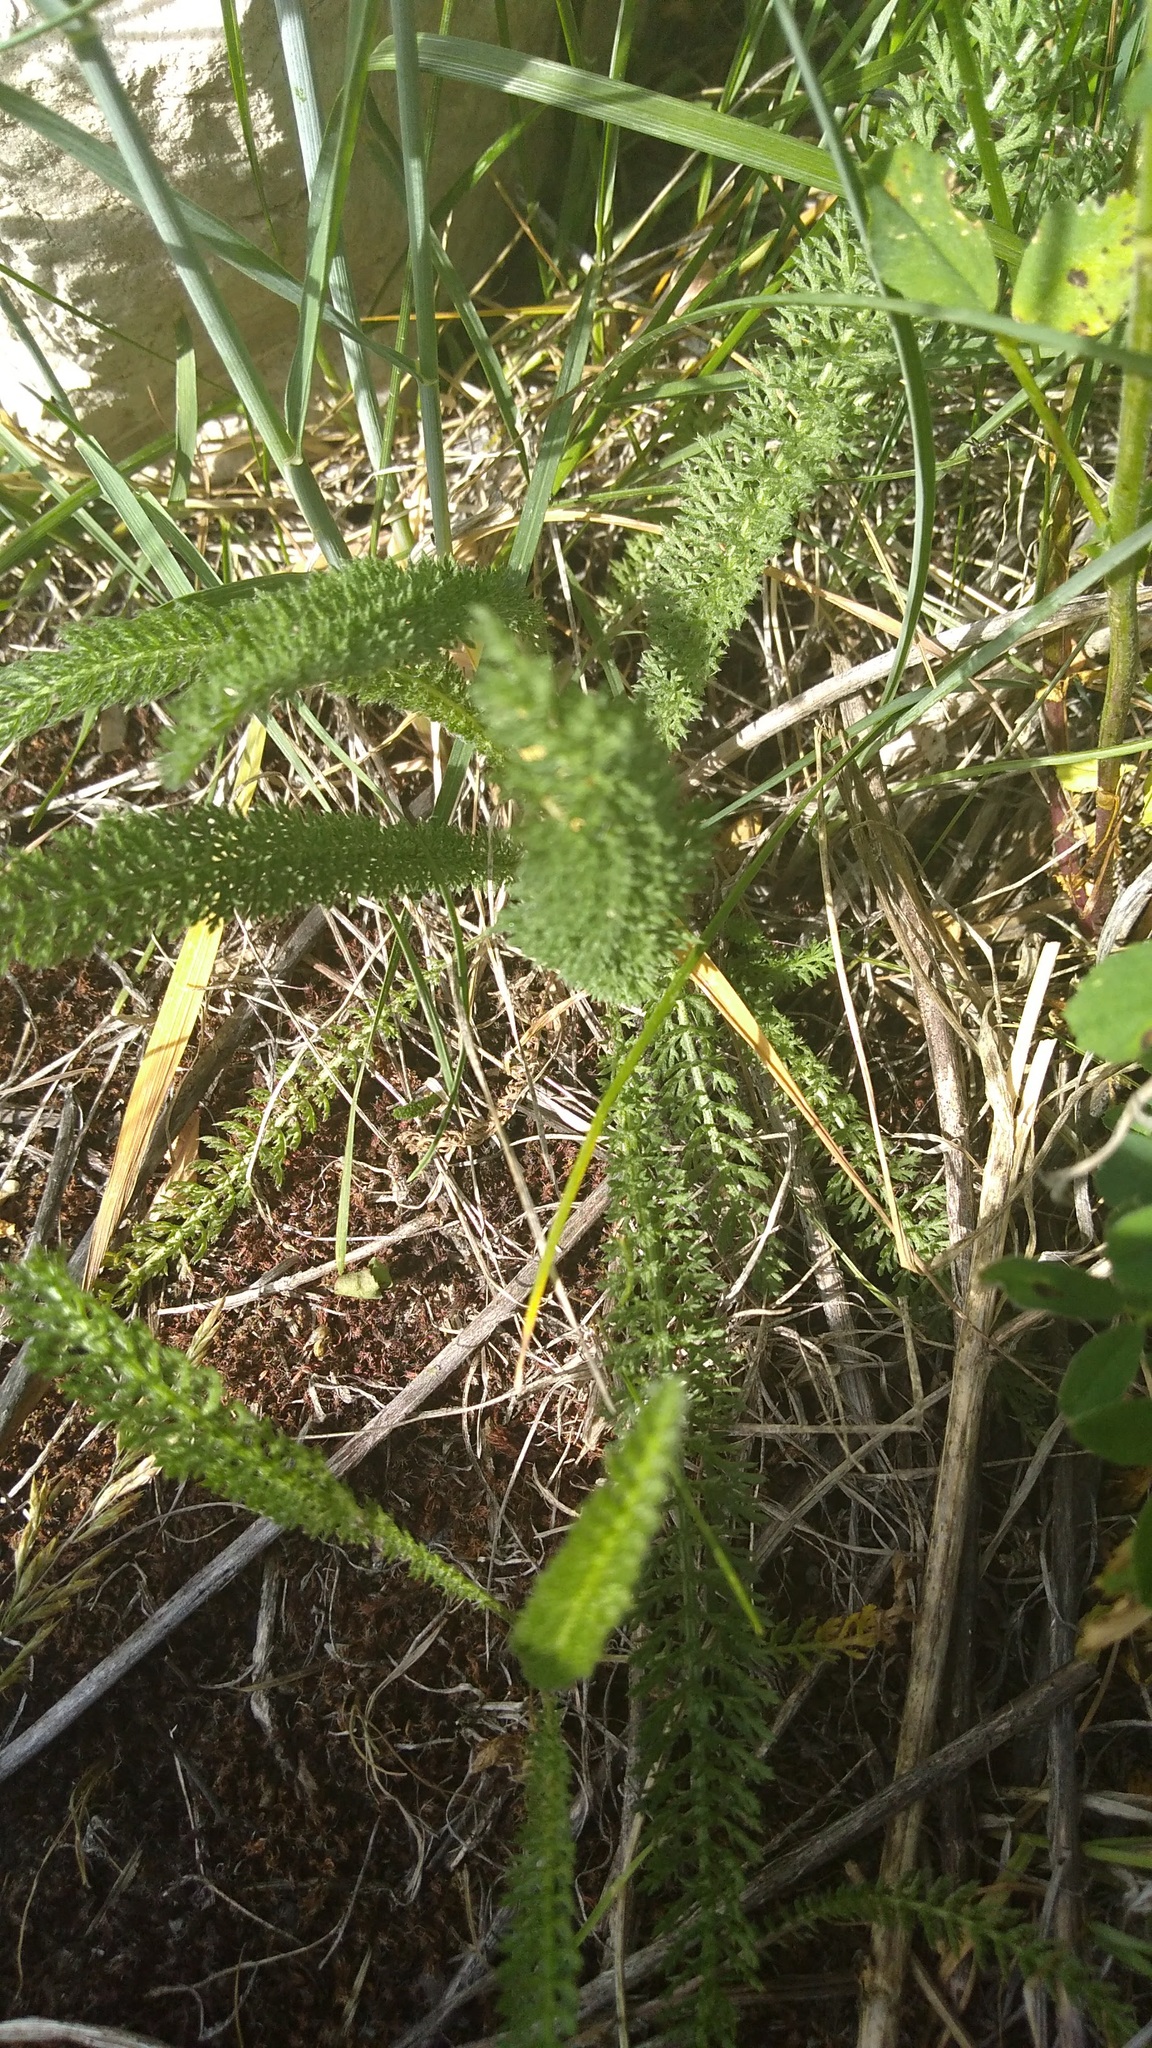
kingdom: Plantae
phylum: Tracheophyta
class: Magnoliopsida
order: Asterales
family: Asteraceae
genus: Achillea
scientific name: Achillea millefolium
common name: Yarrow
